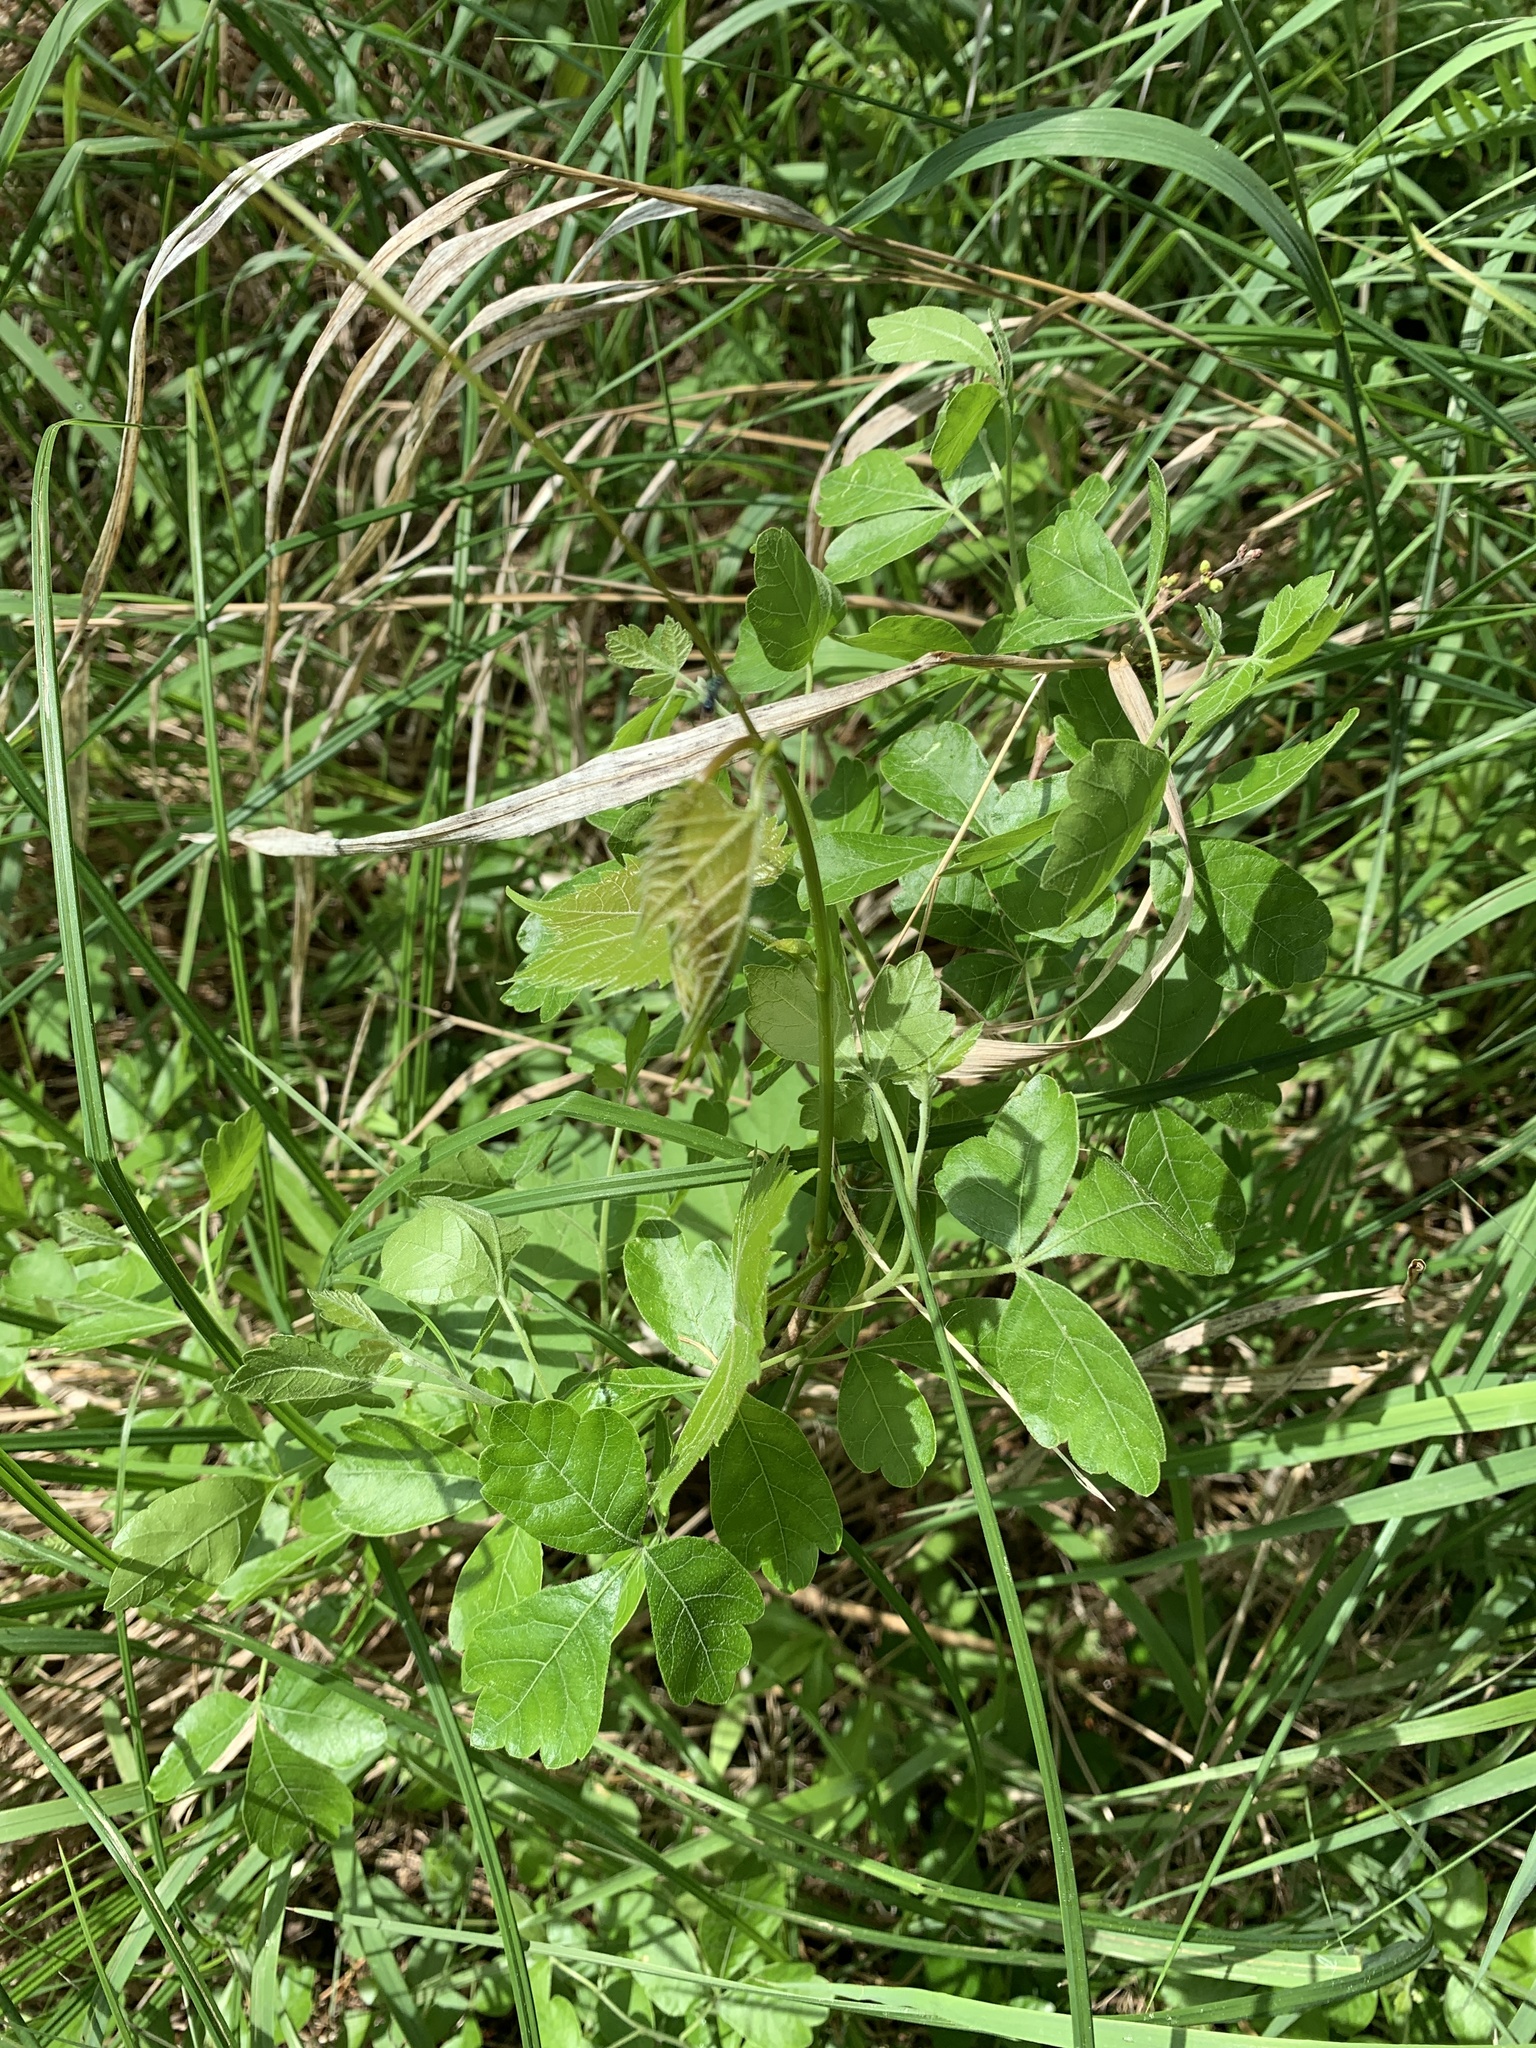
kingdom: Plantae
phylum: Tracheophyta
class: Magnoliopsida
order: Sapindales
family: Anacardiaceae
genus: Rhus
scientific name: Rhus aromatica
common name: Aromatic sumac
